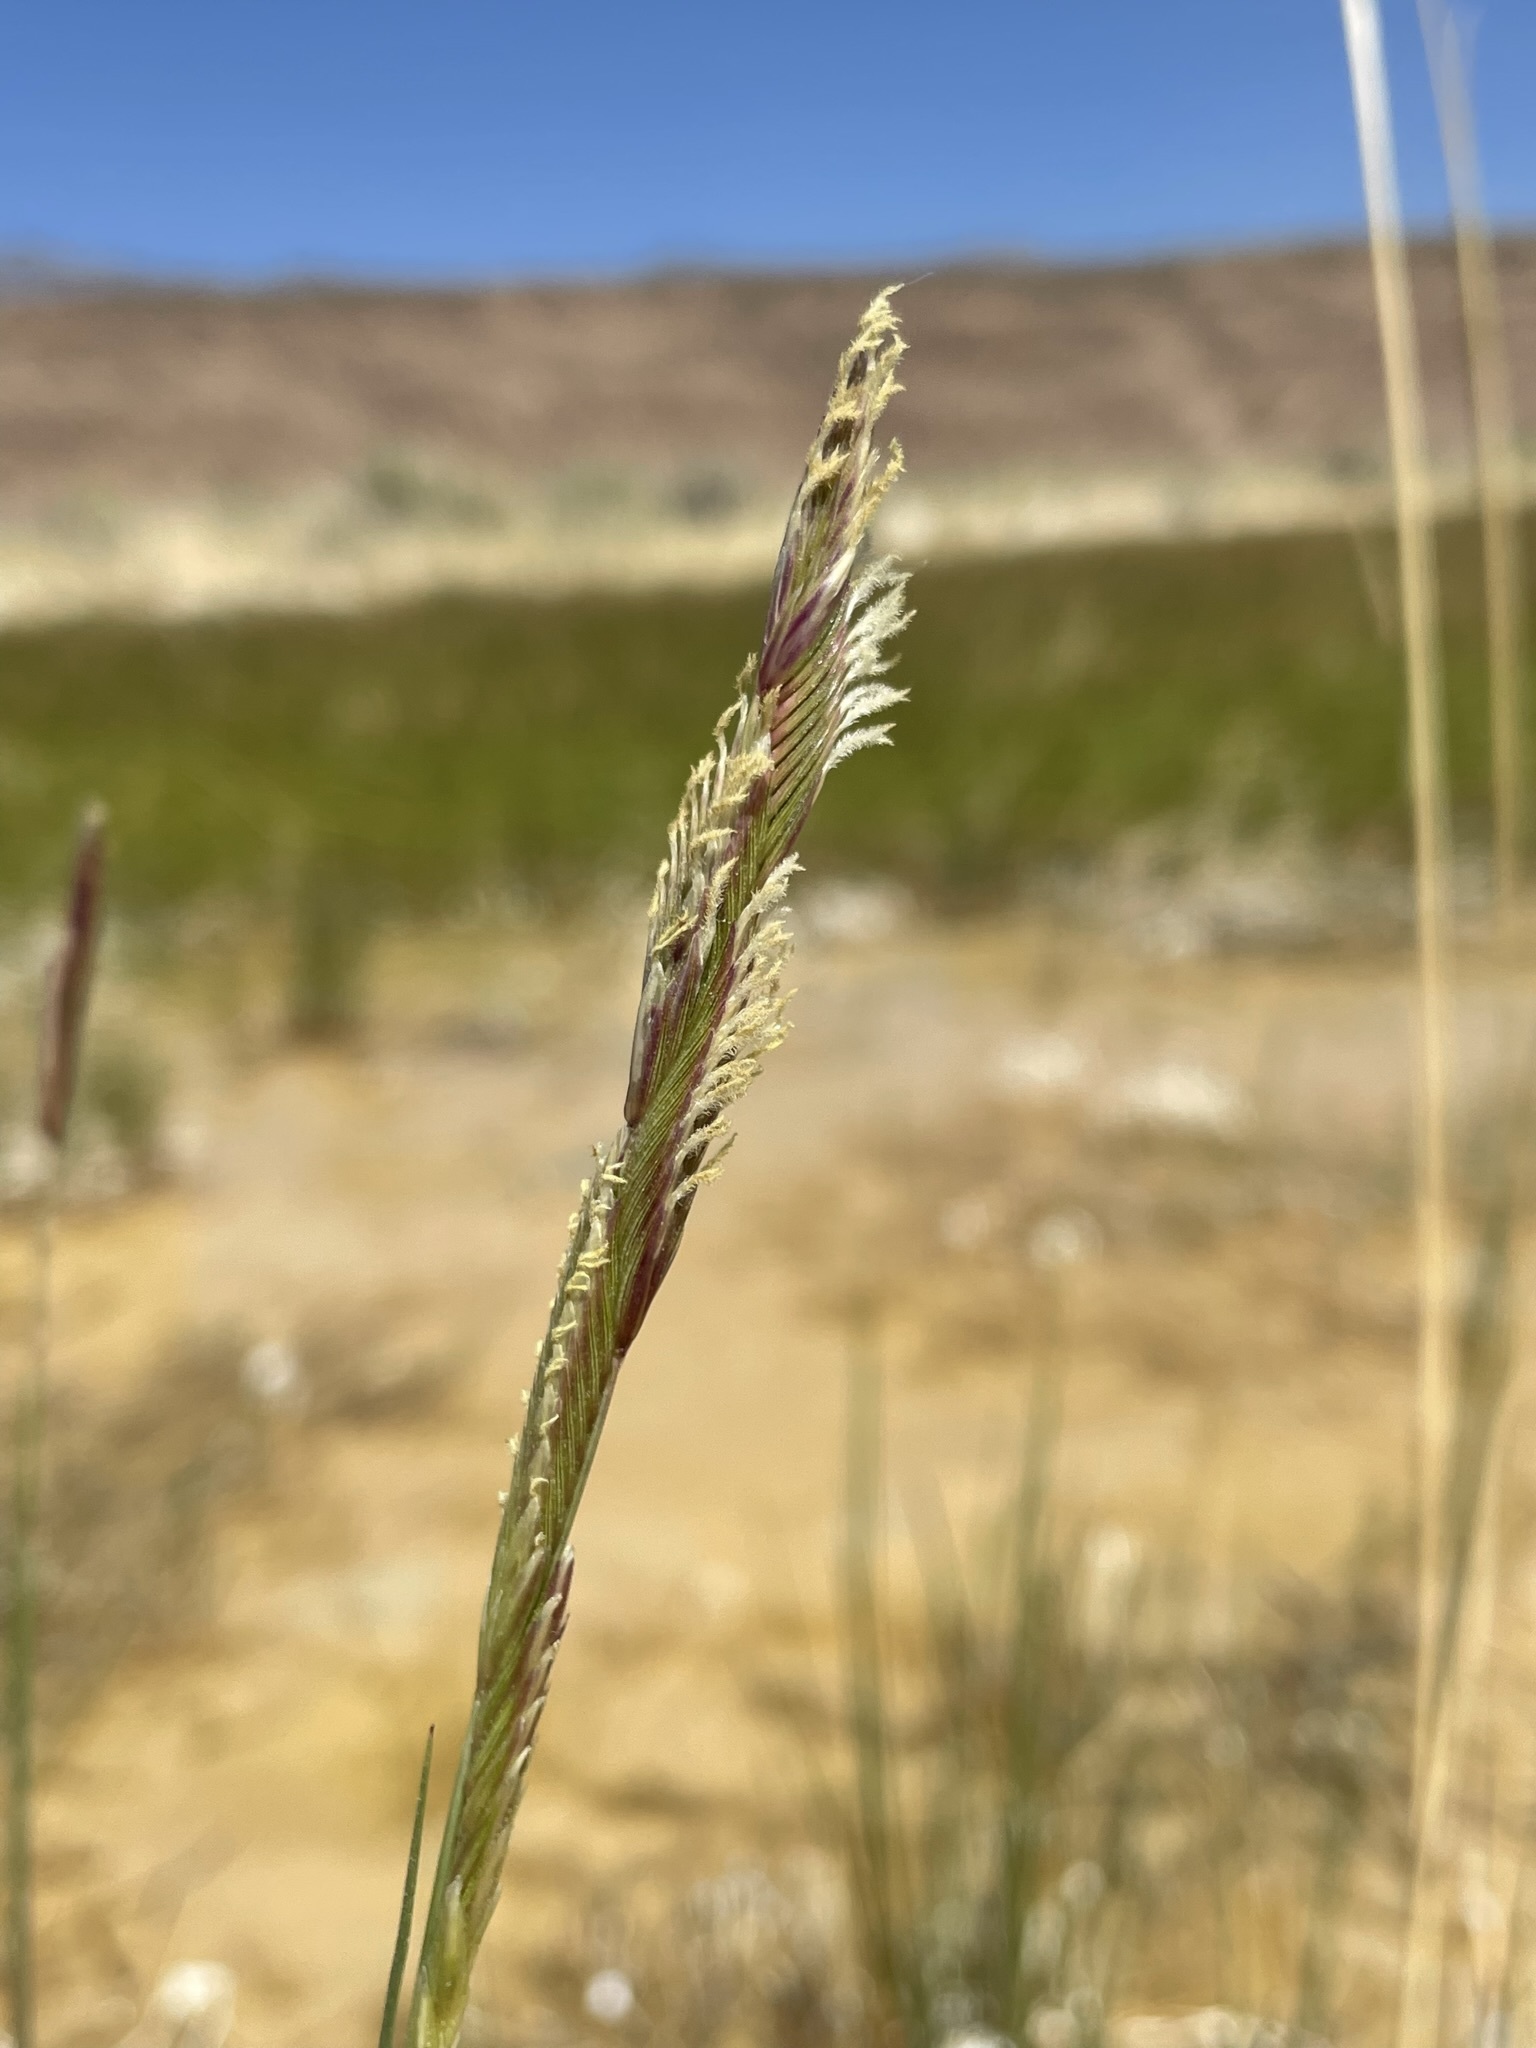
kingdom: Plantae
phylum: Tracheophyta
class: Liliopsida
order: Poales
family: Poaceae
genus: Sporobolus
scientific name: Sporobolus hookerianus
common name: Alkali cordgrass
